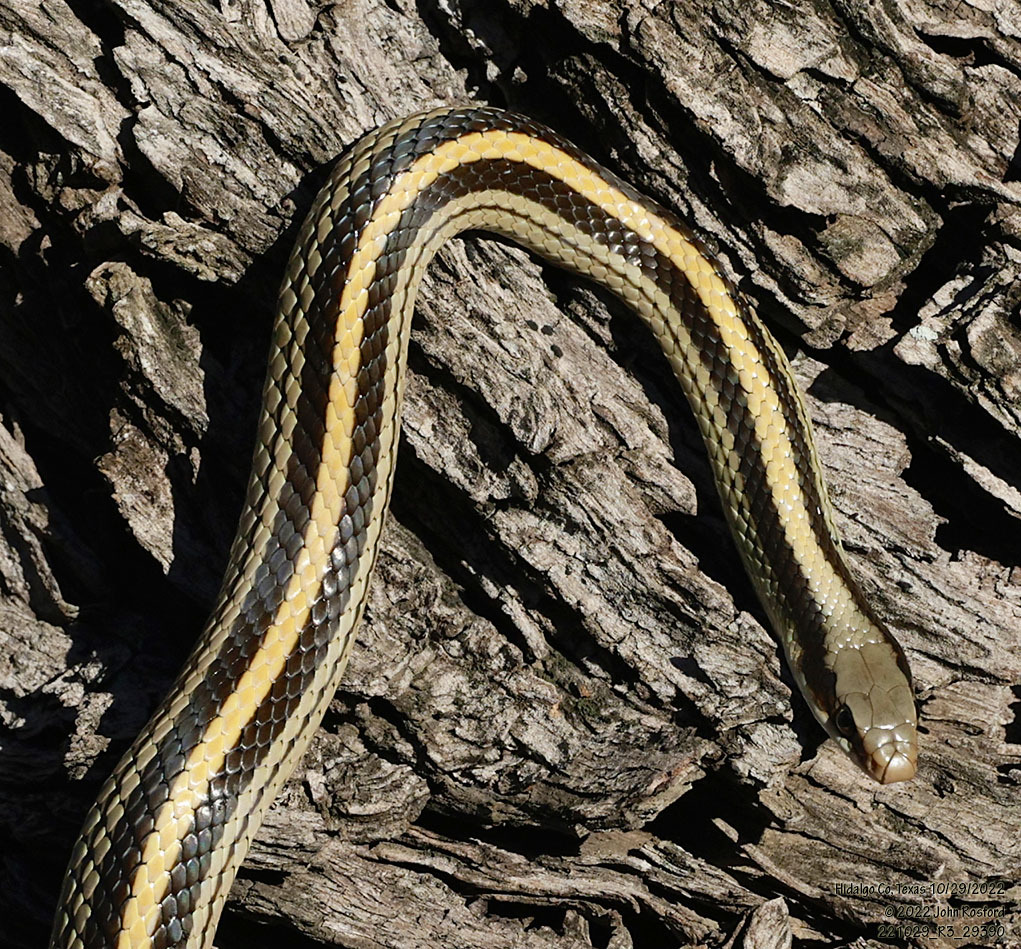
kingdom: Animalia
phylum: Chordata
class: Squamata
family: Colubridae
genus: Salvadora
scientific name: Salvadora lineata
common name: Texas patchnose snake
